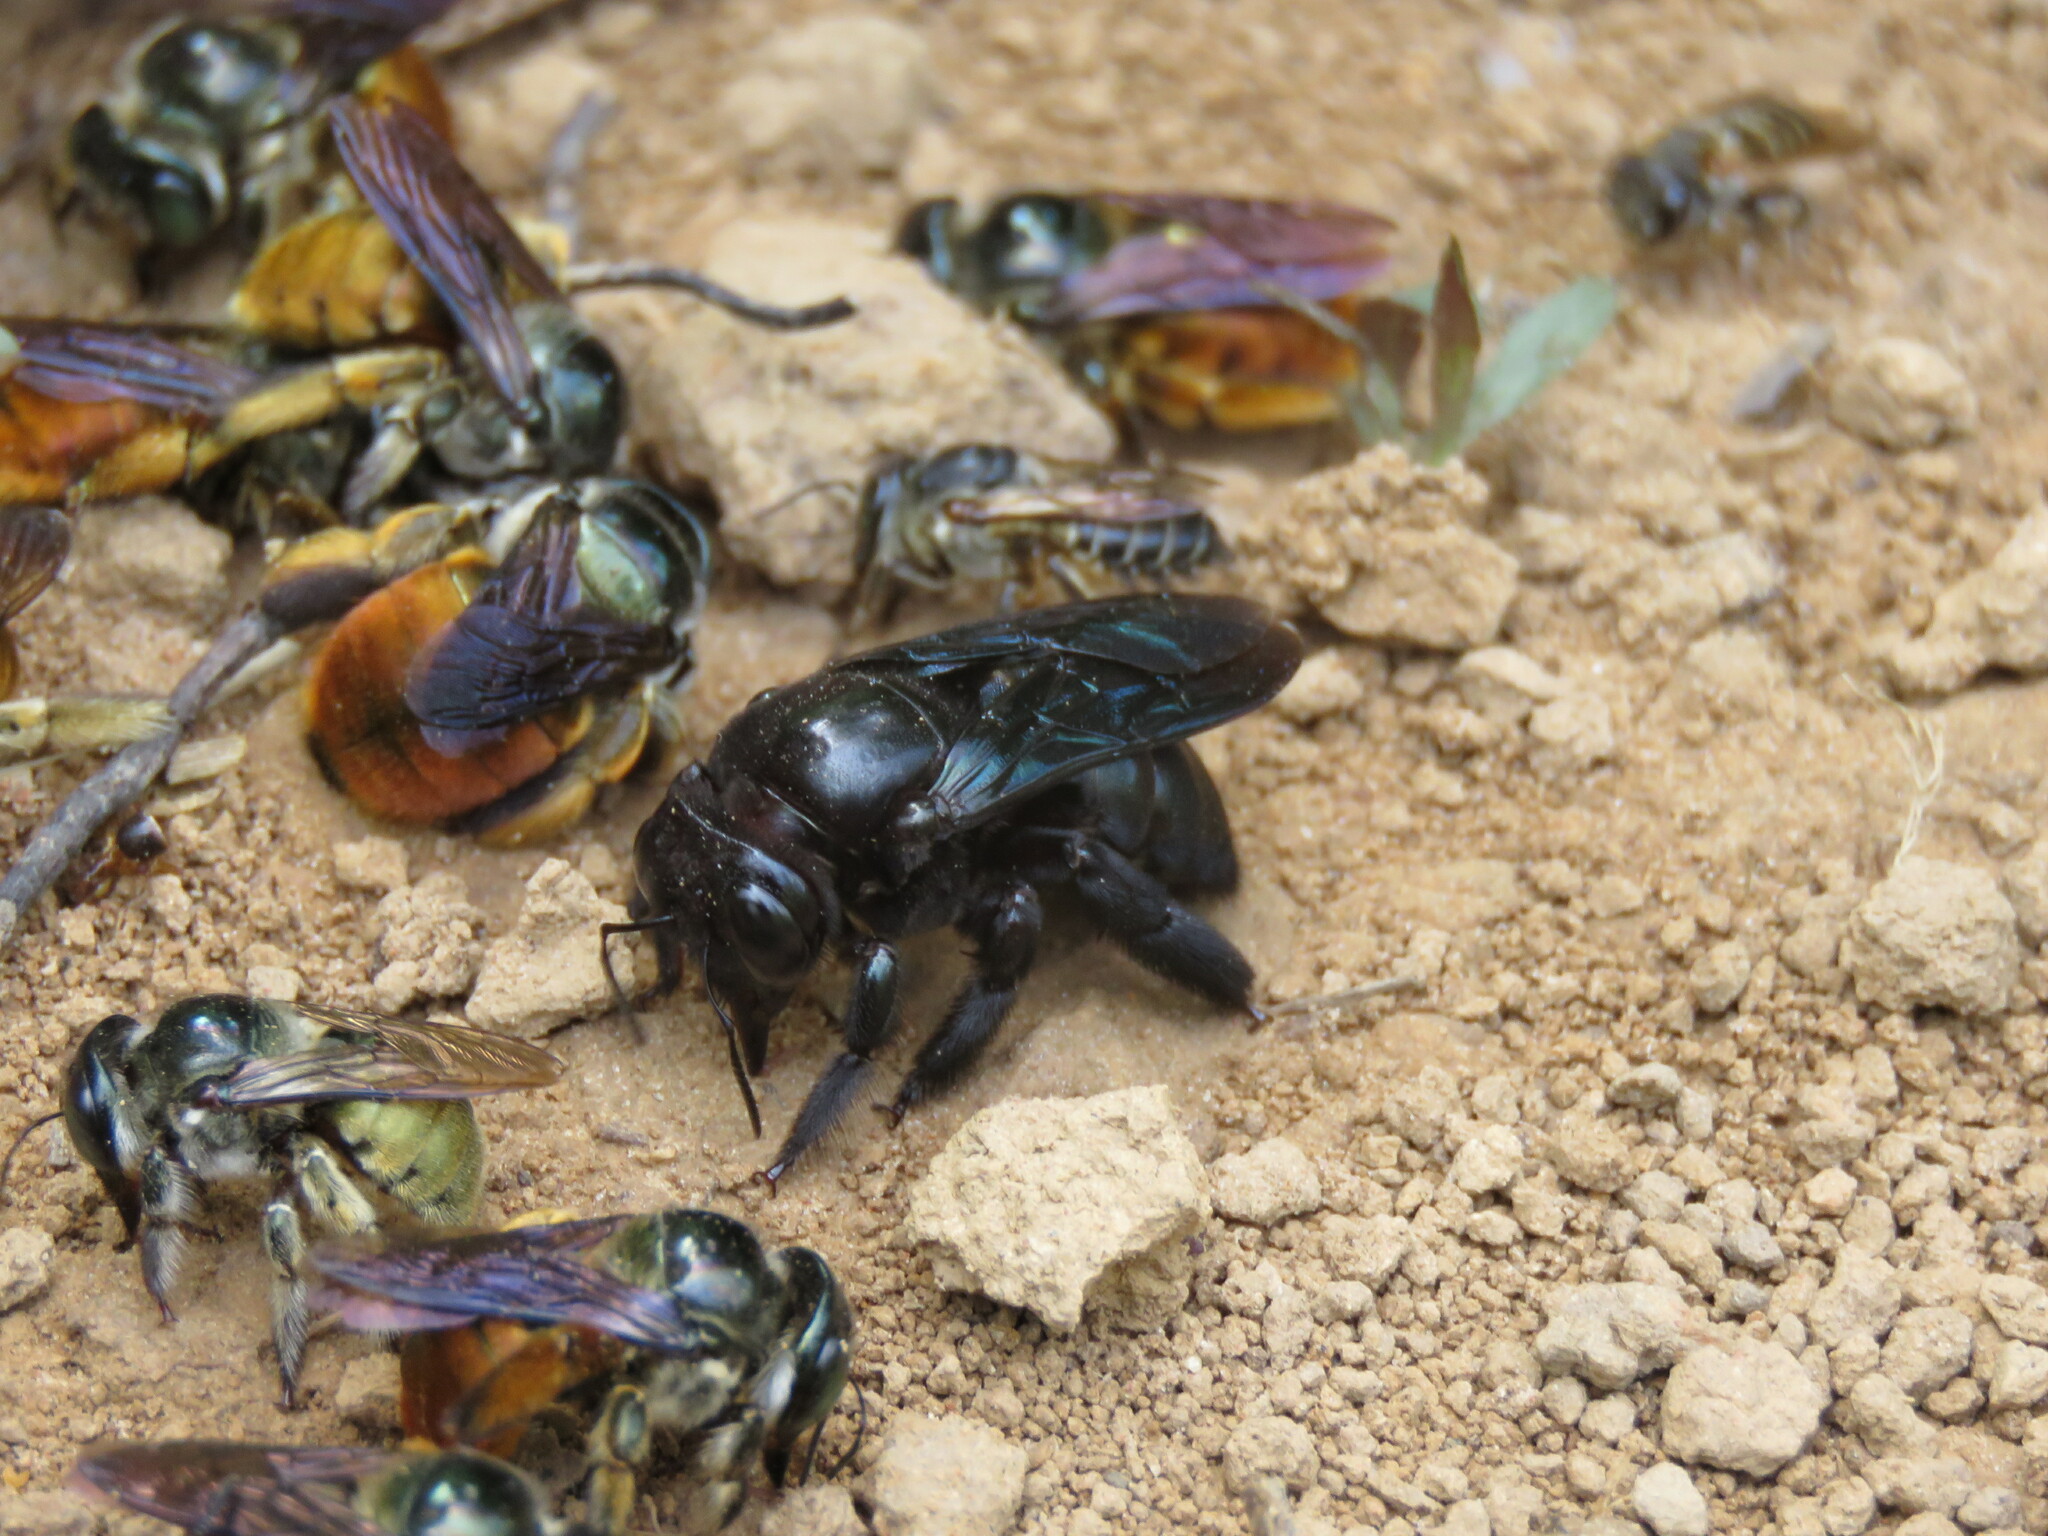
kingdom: Animalia
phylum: Arthropoda
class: Insecta
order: Hymenoptera
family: Apidae
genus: Xylocopa
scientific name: Xylocopa ornata
